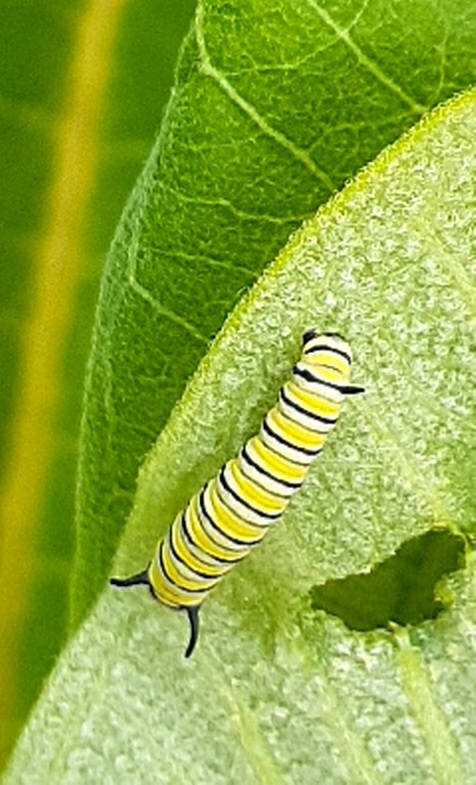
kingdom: Animalia
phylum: Arthropoda
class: Insecta
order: Lepidoptera
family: Nymphalidae
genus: Danaus
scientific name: Danaus plexippus
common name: Monarch
